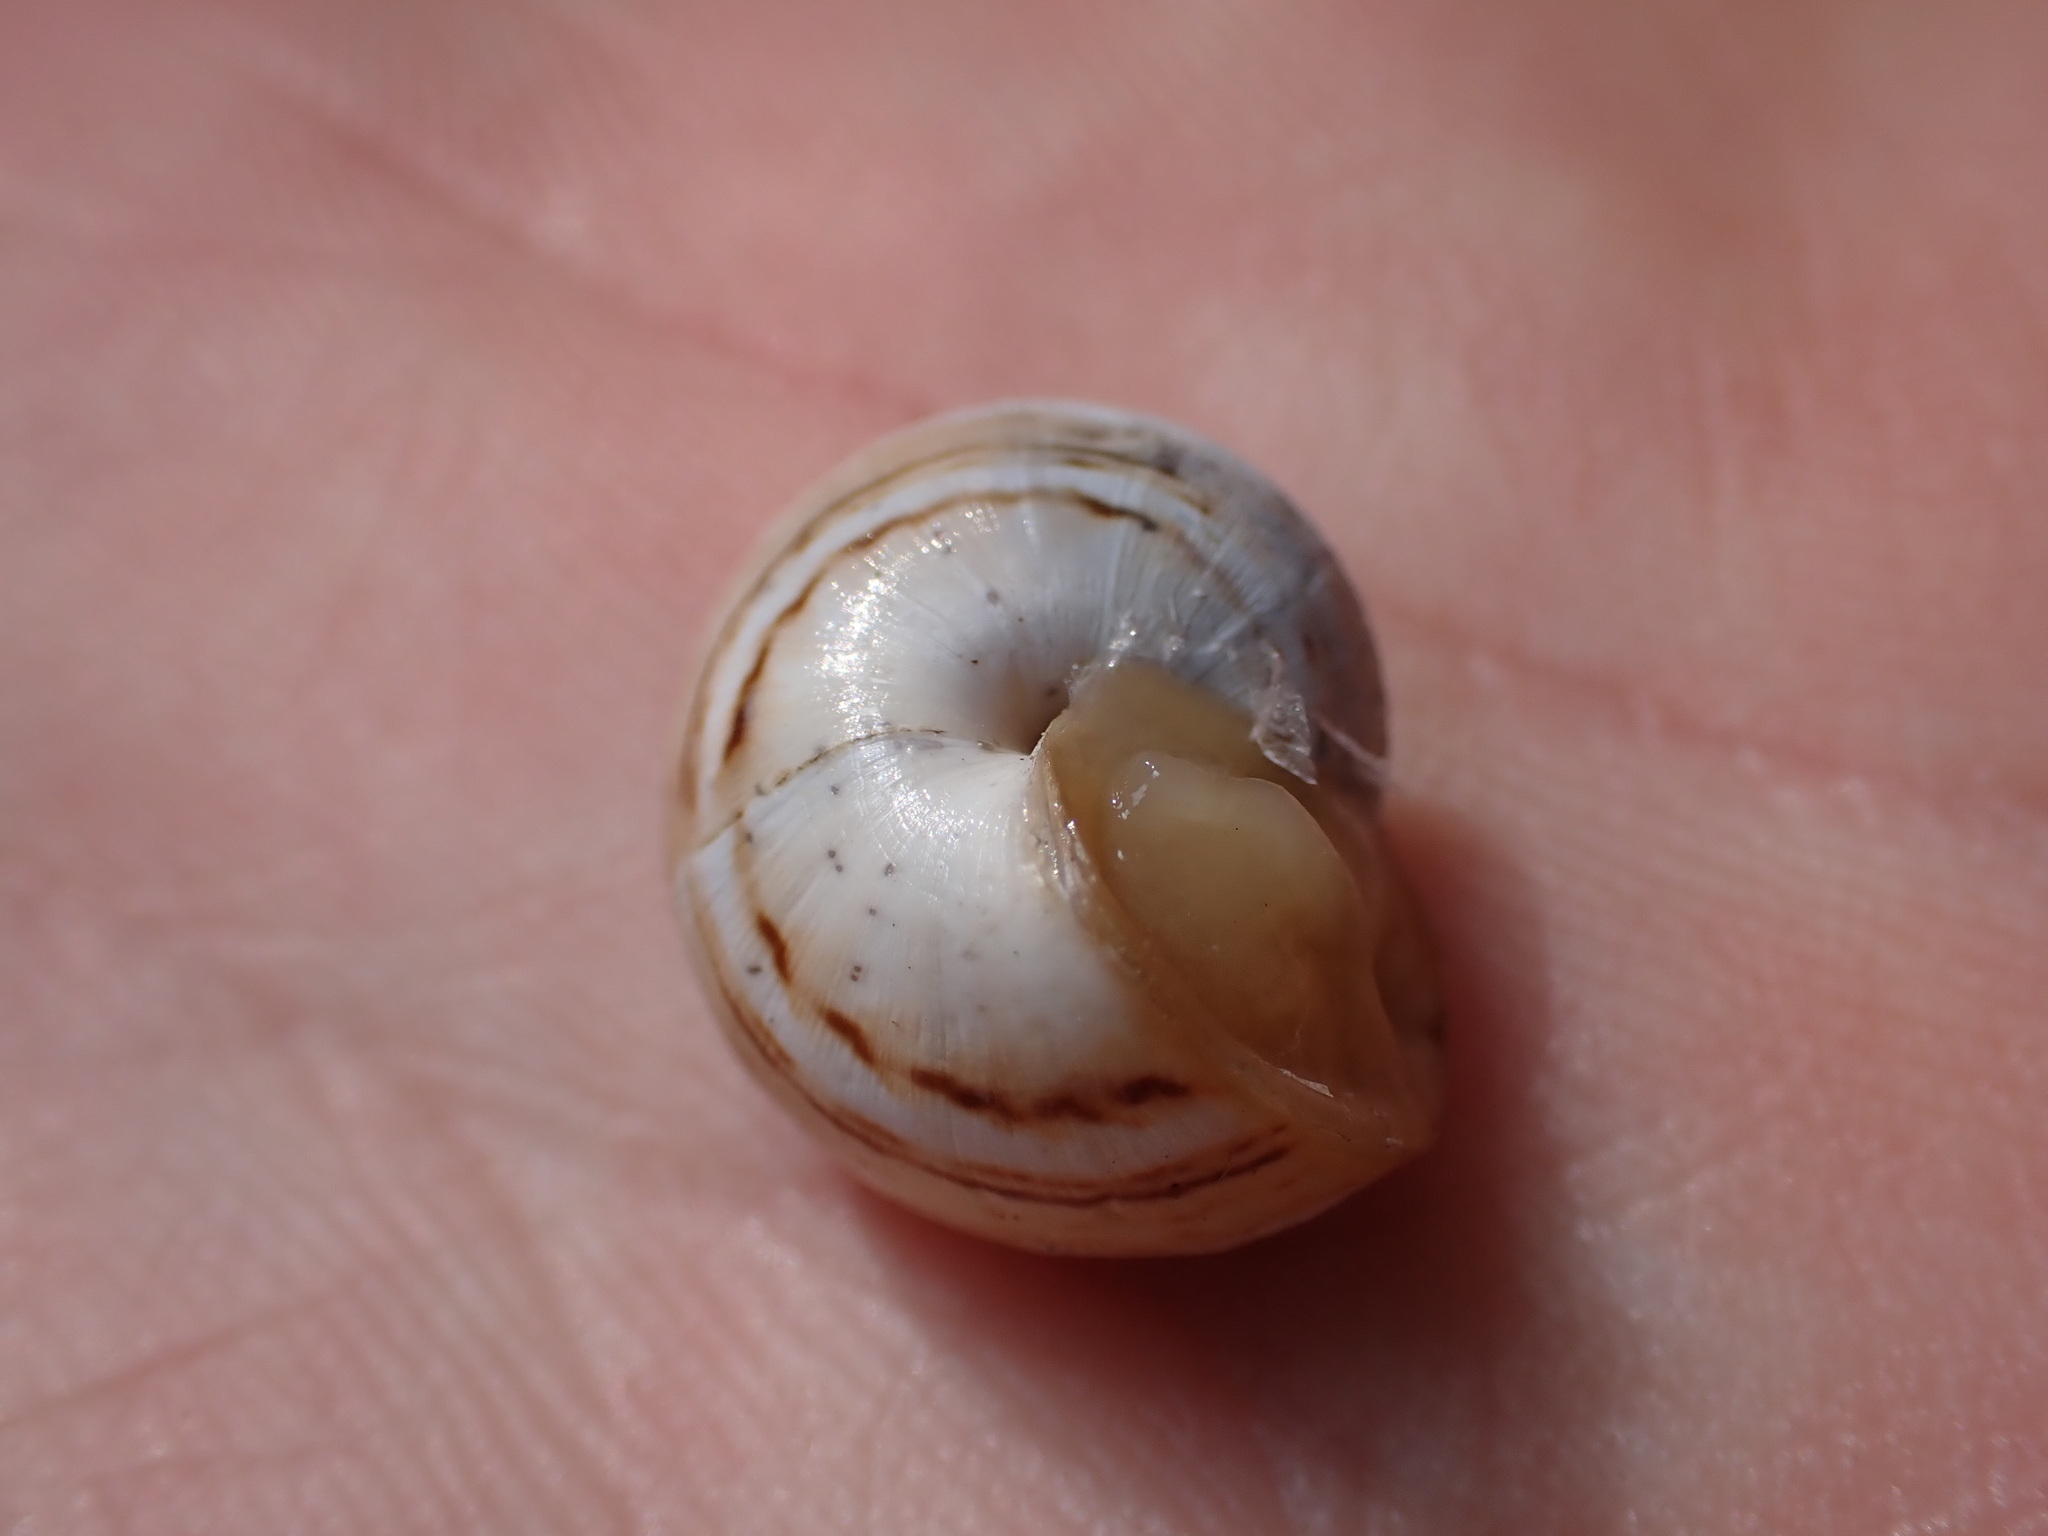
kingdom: Animalia
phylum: Mollusca
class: Gastropoda
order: Stylommatophora
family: Helicidae
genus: Theba
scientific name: Theba pisana
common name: White snail
